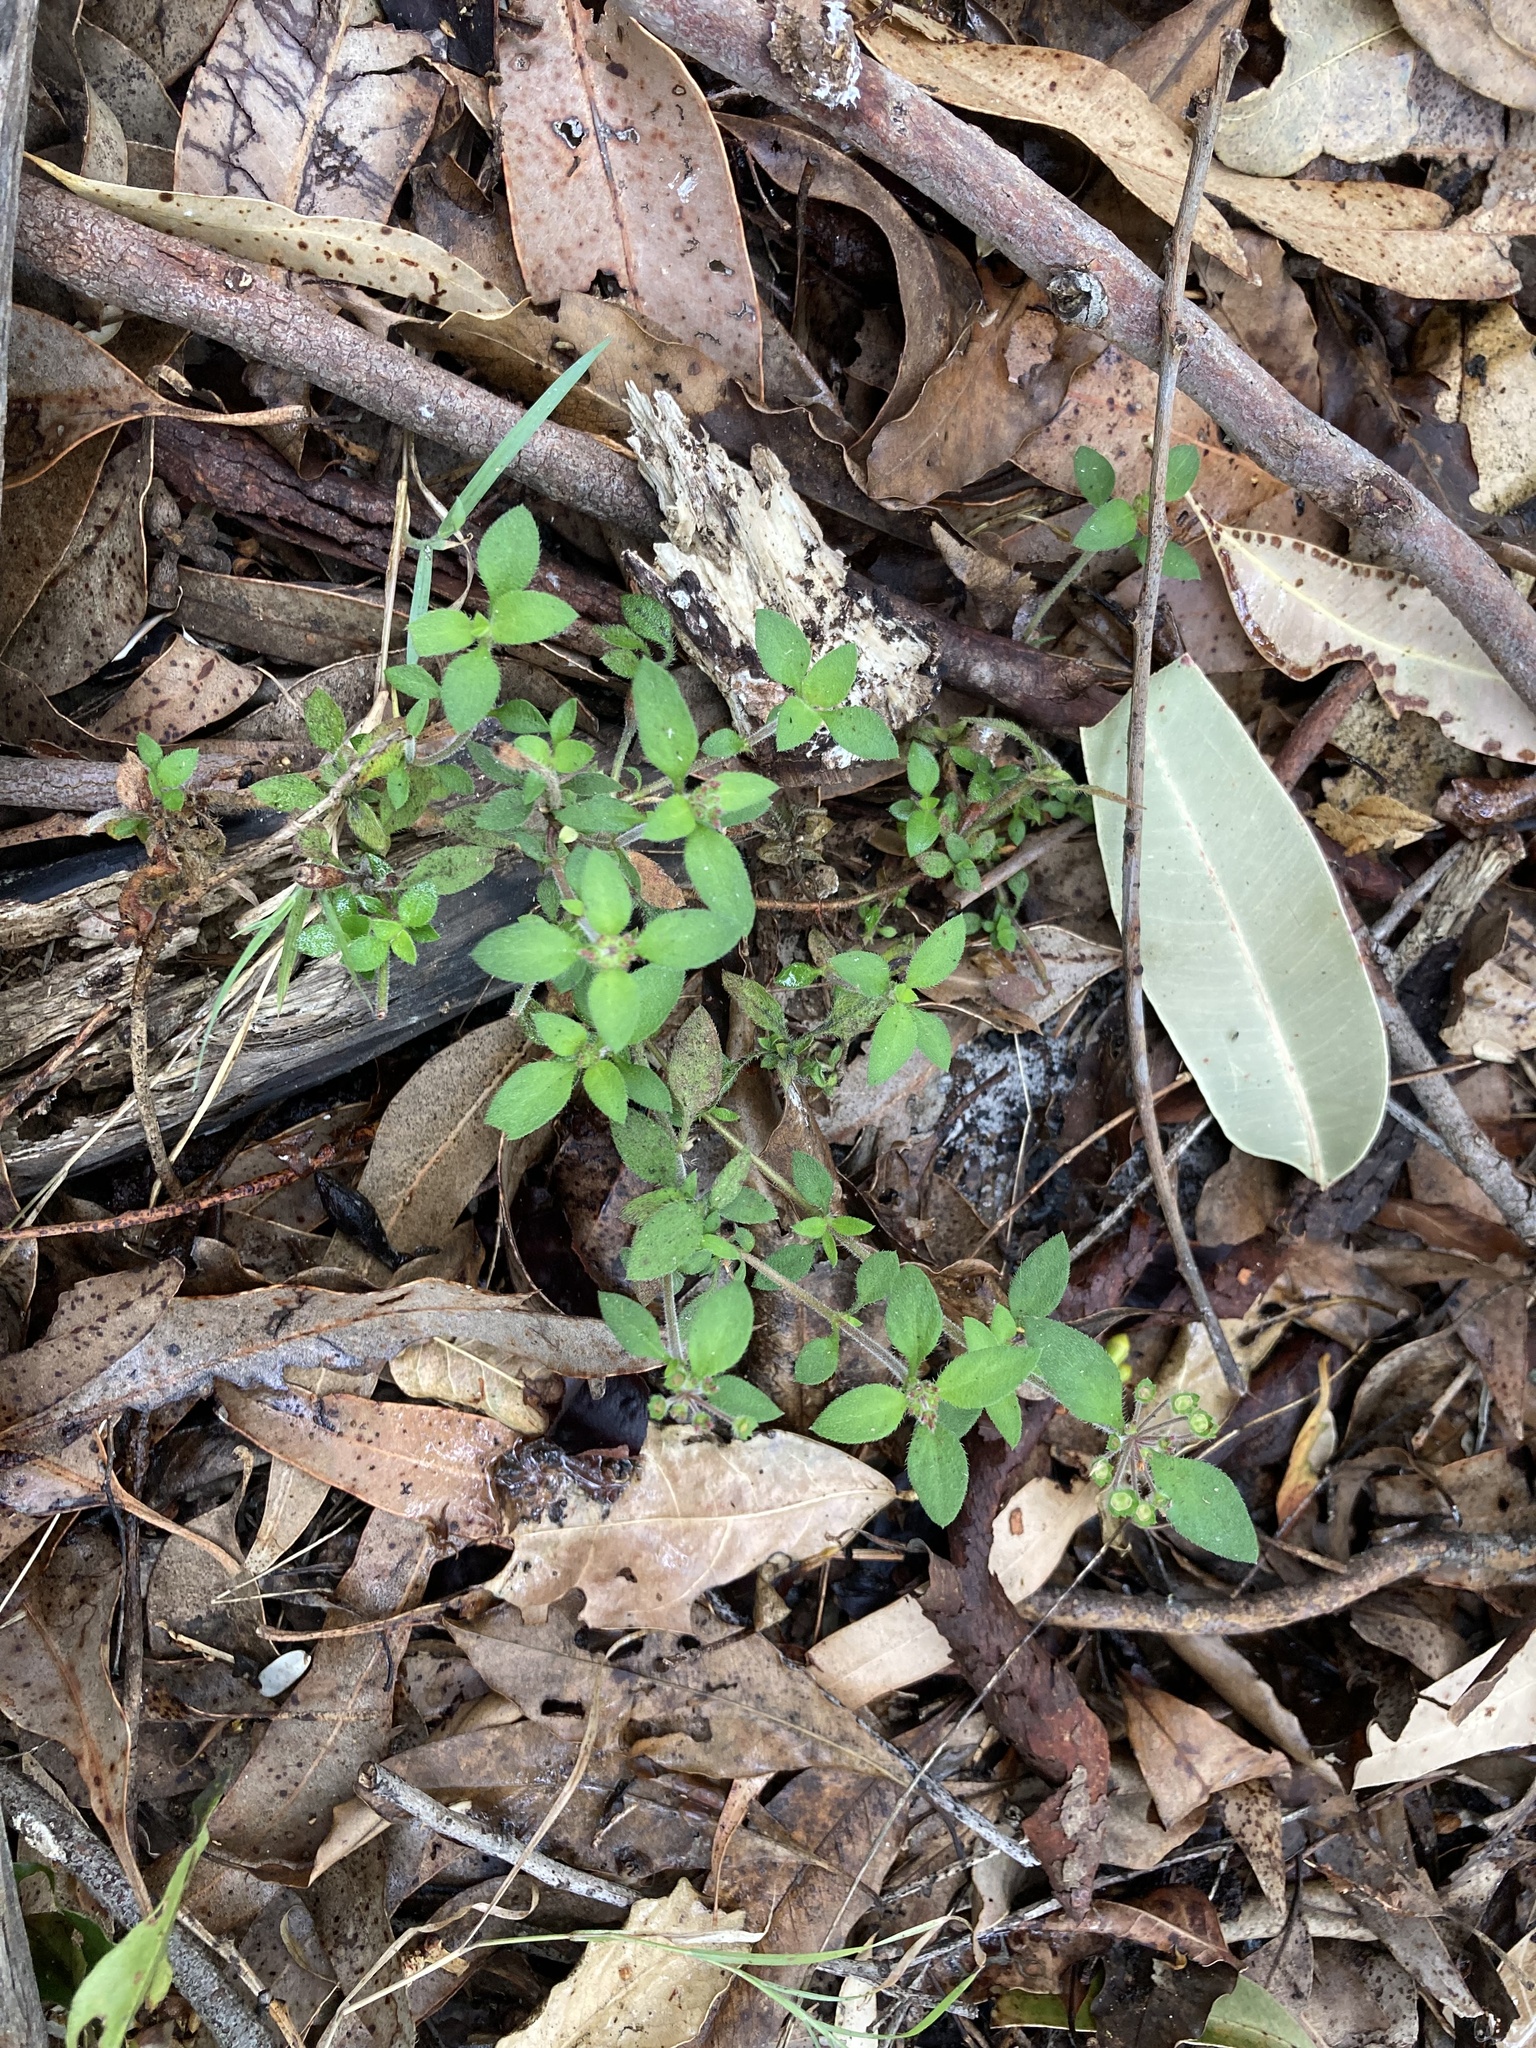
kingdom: Plantae
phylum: Tracheophyta
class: Magnoliopsida
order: Gentianales
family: Rubiaceae
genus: Pomax
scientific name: Pomax umbellata
